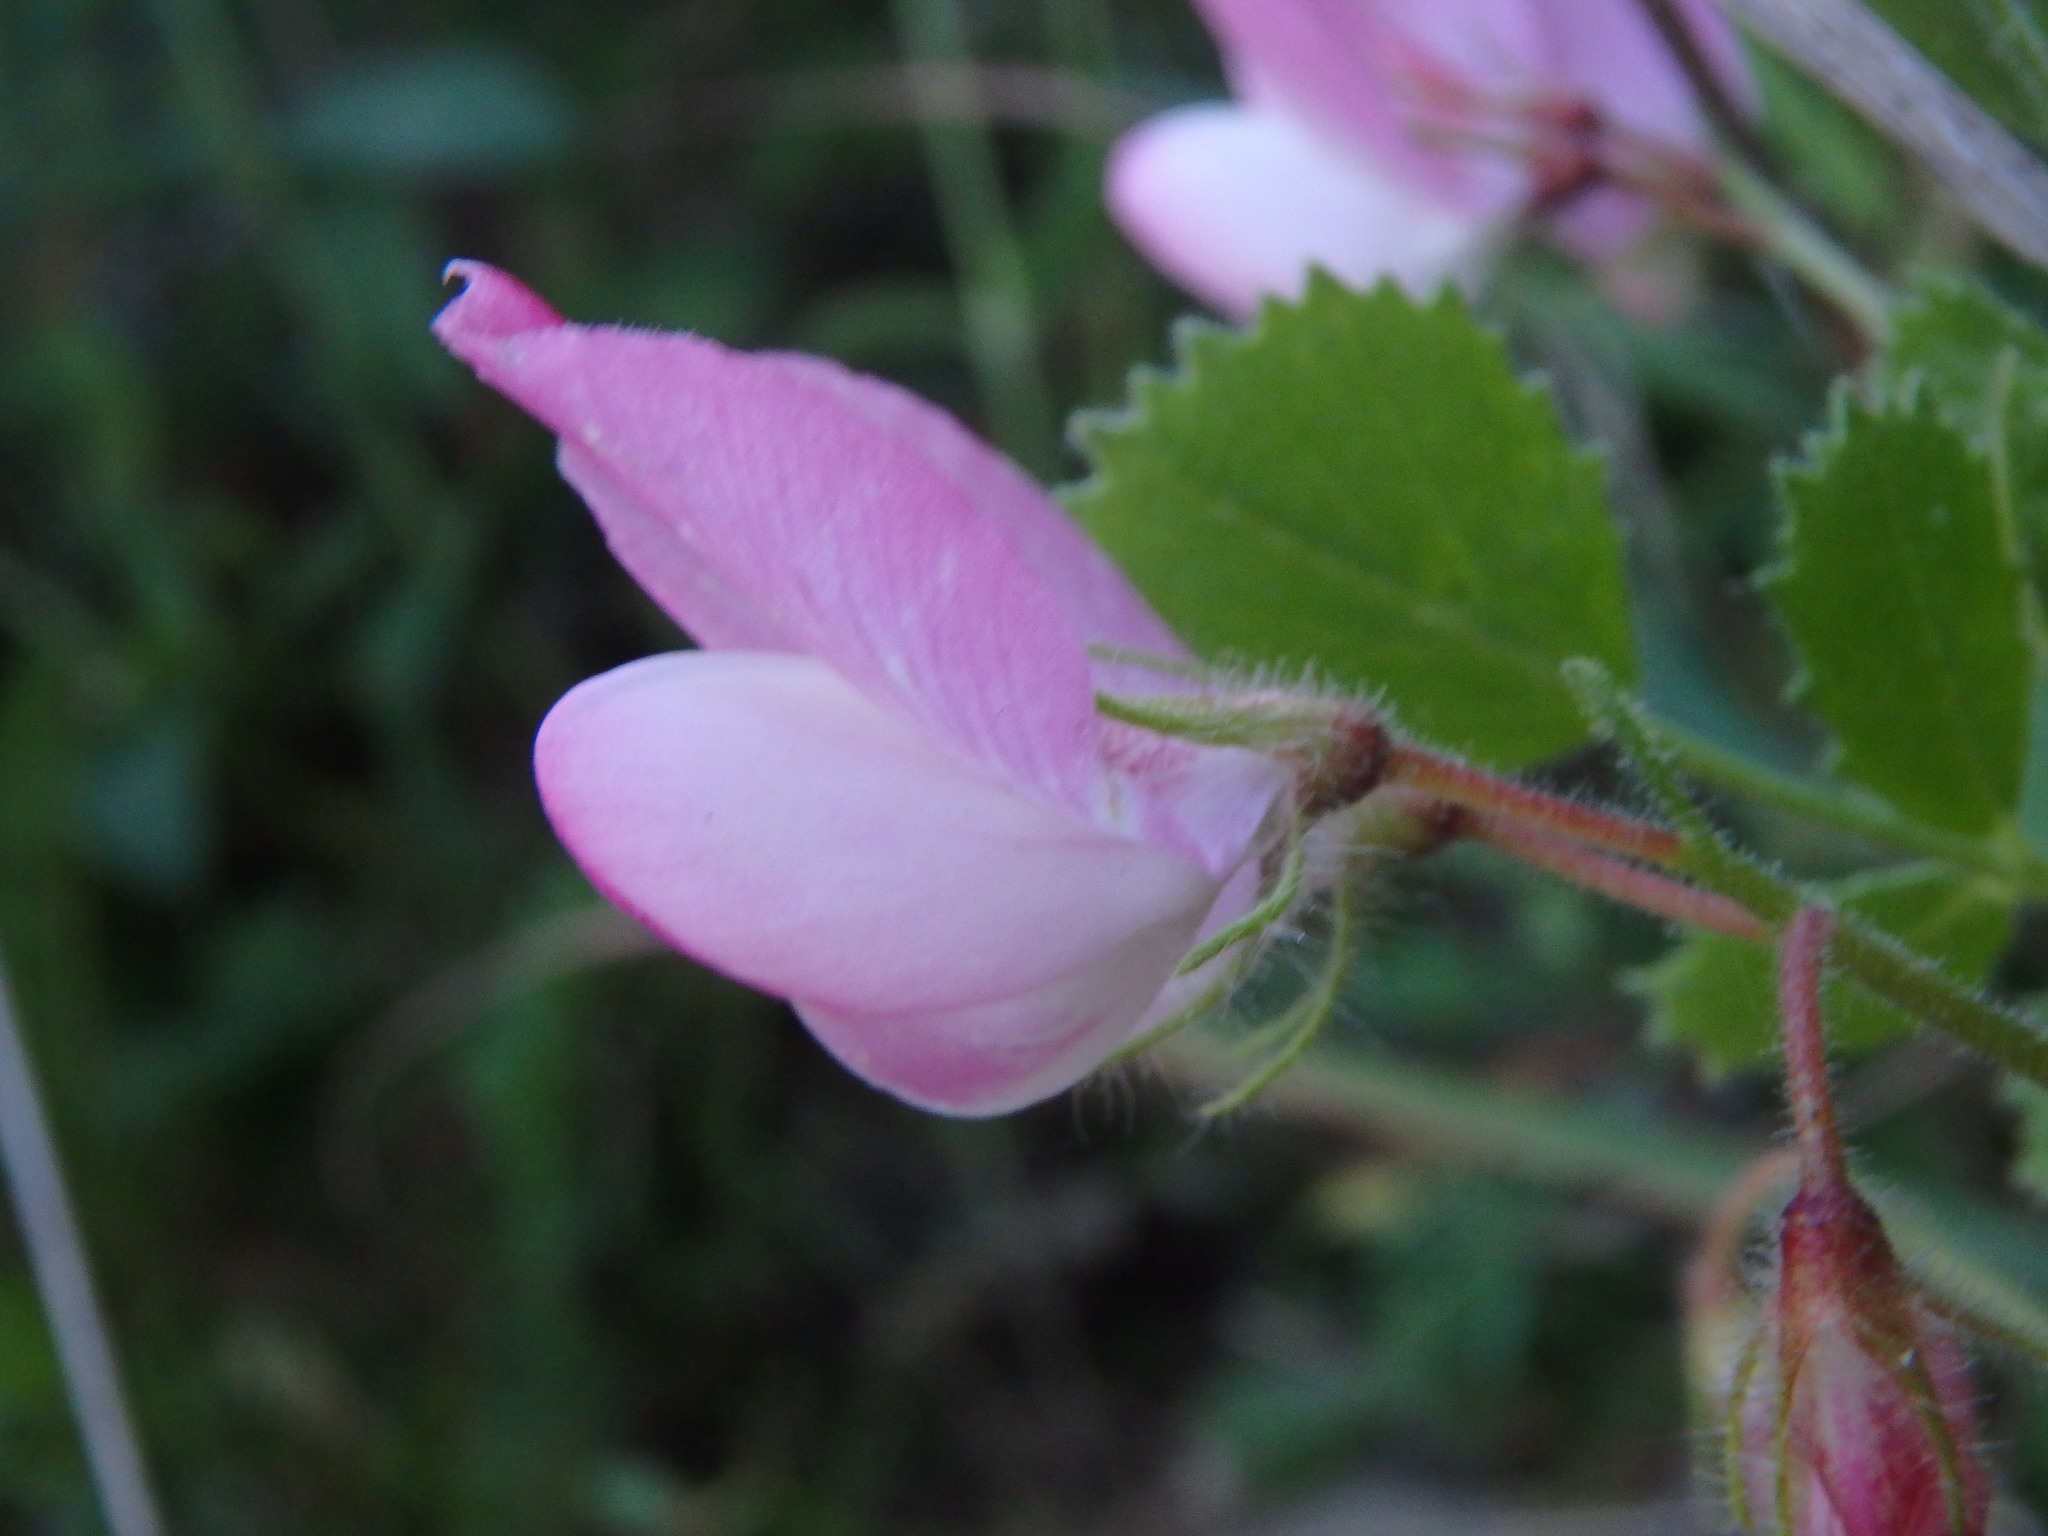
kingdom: Plantae
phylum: Tracheophyta
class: Magnoliopsida
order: Fabales
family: Fabaceae
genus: Ononis
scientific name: Ononis rotundifolia
